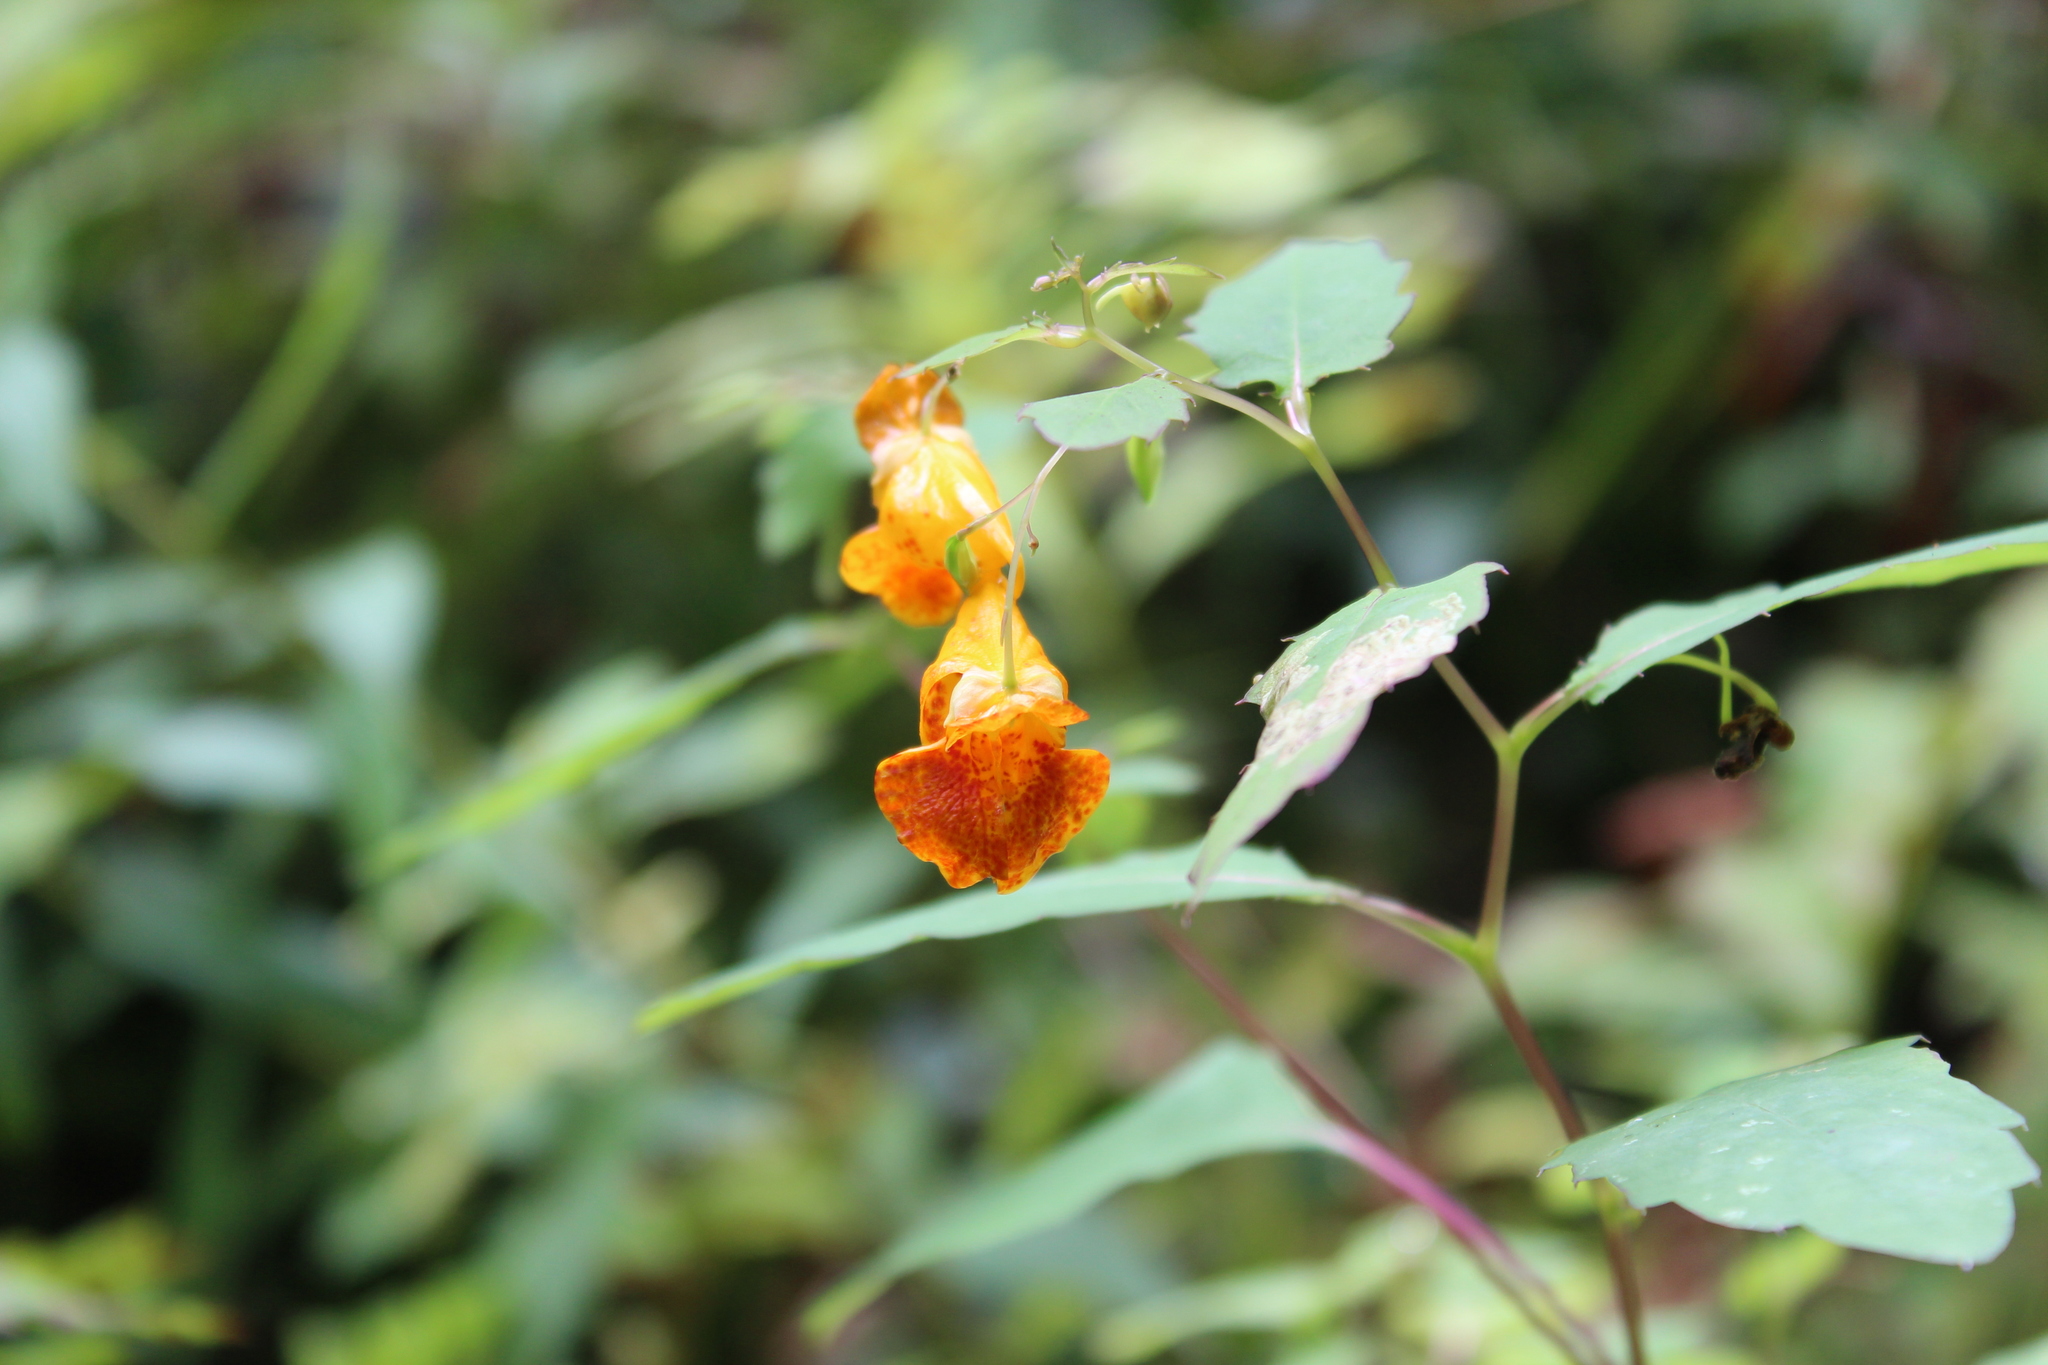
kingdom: Plantae
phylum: Tracheophyta
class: Magnoliopsida
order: Ericales
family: Balsaminaceae
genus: Impatiens
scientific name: Impatiens capensis
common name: Orange balsam
